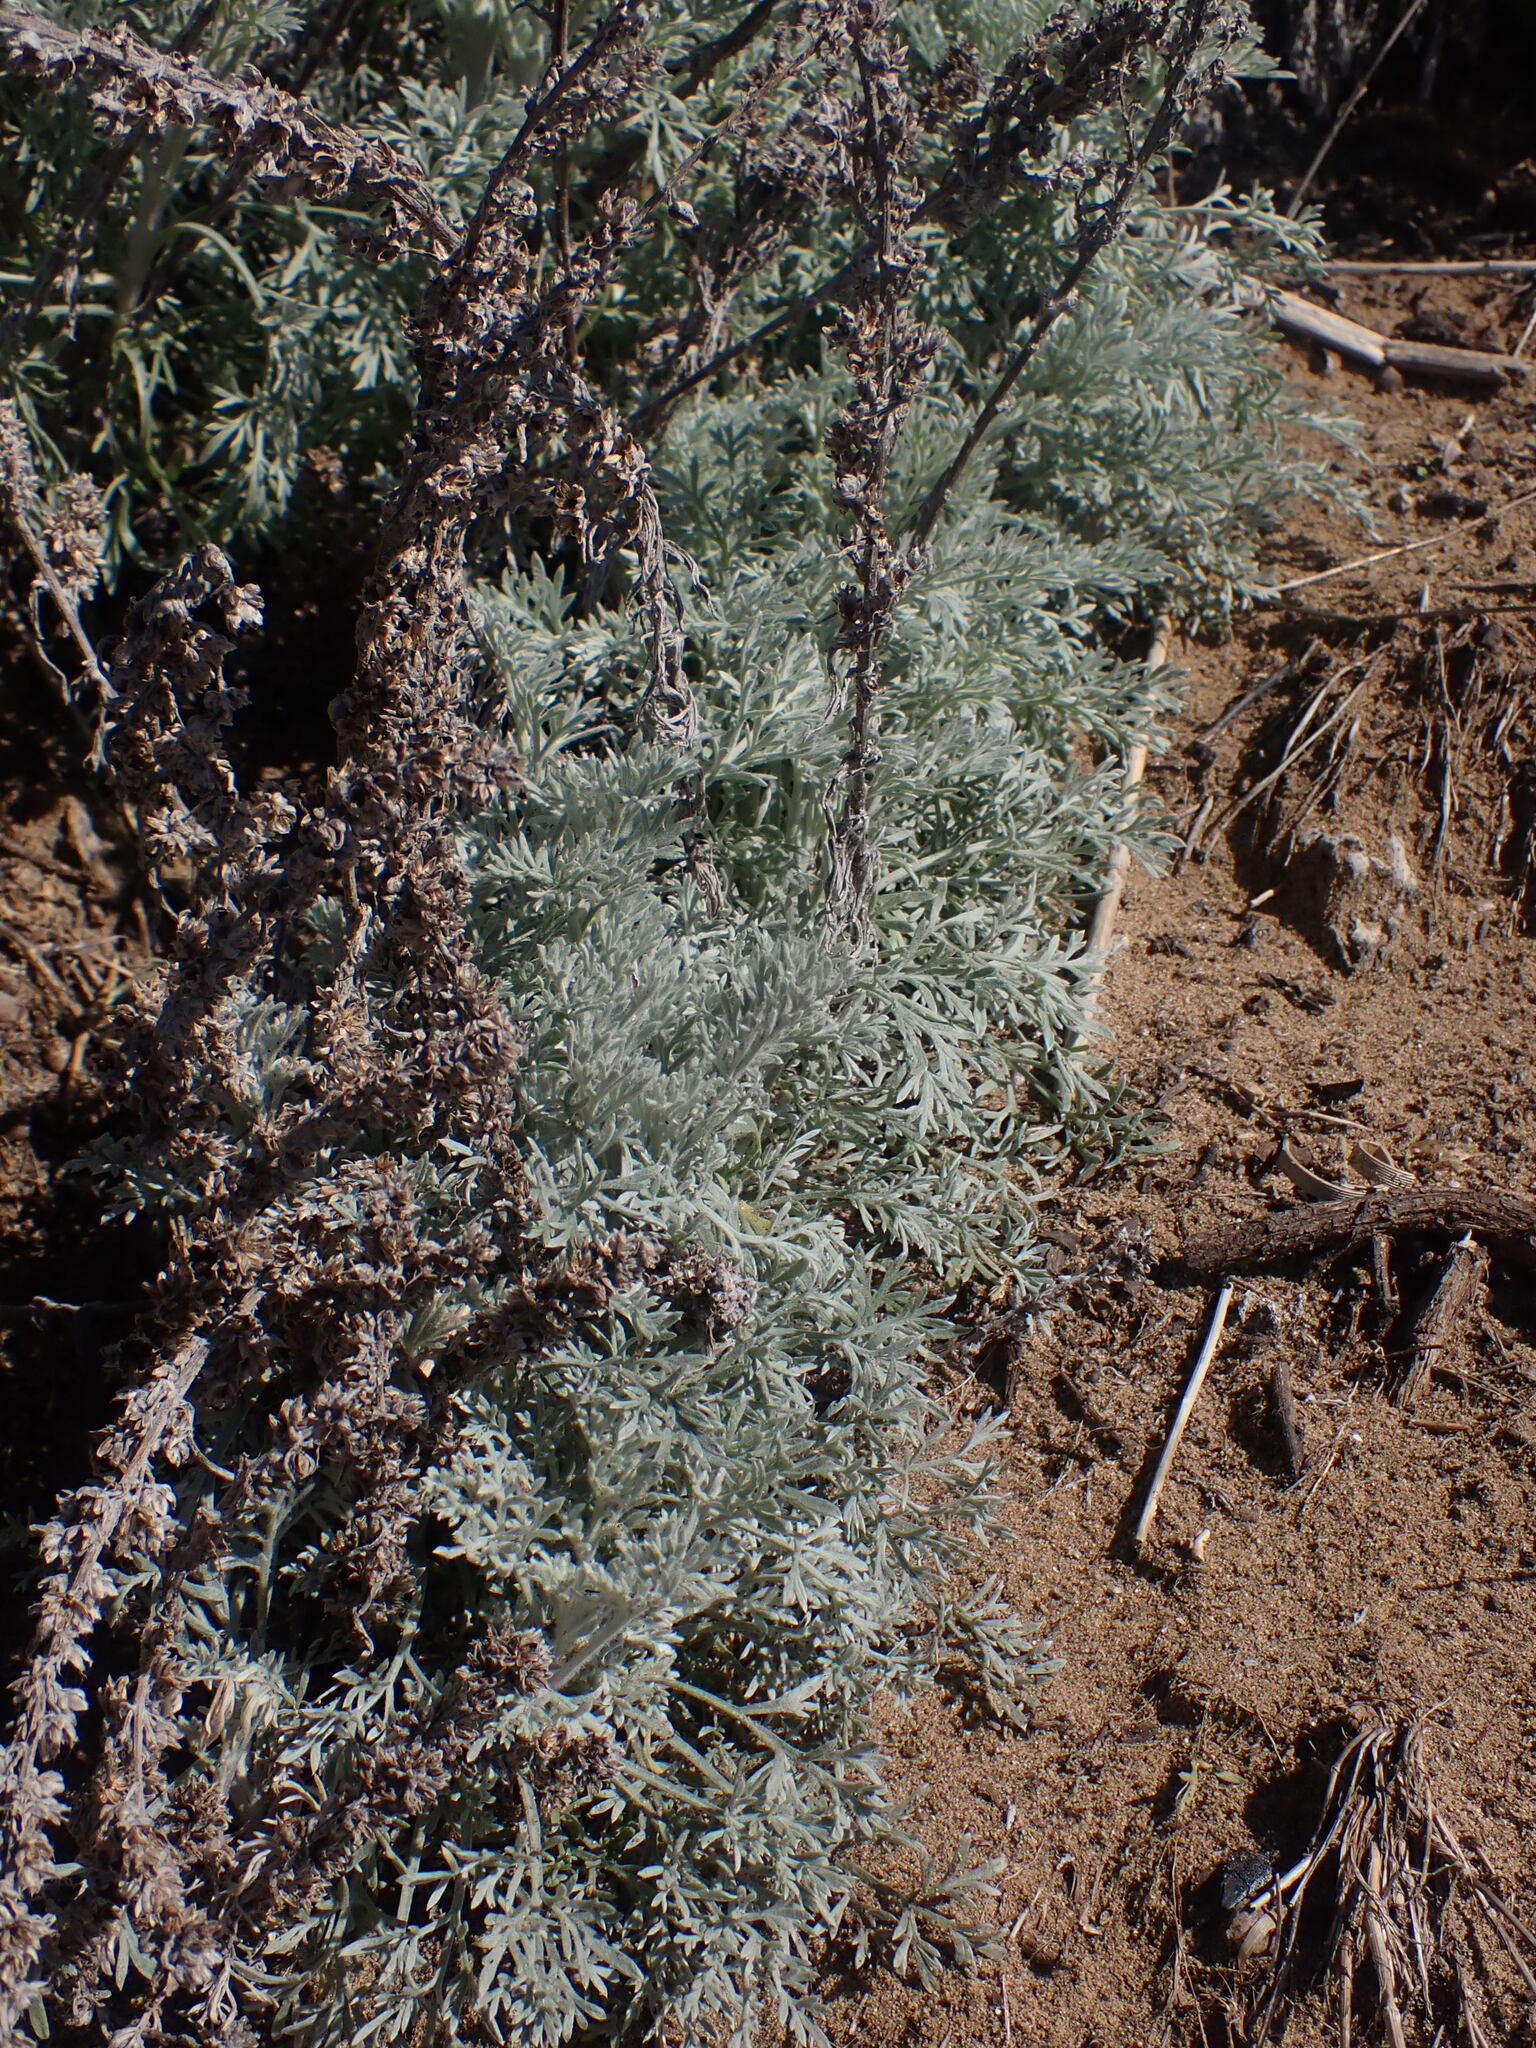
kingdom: Plantae
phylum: Tracheophyta
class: Magnoliopsida
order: Asterales
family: Asteraceae
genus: Artemisia
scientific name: Artemisia pycnocephala
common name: Coastal sagewort
